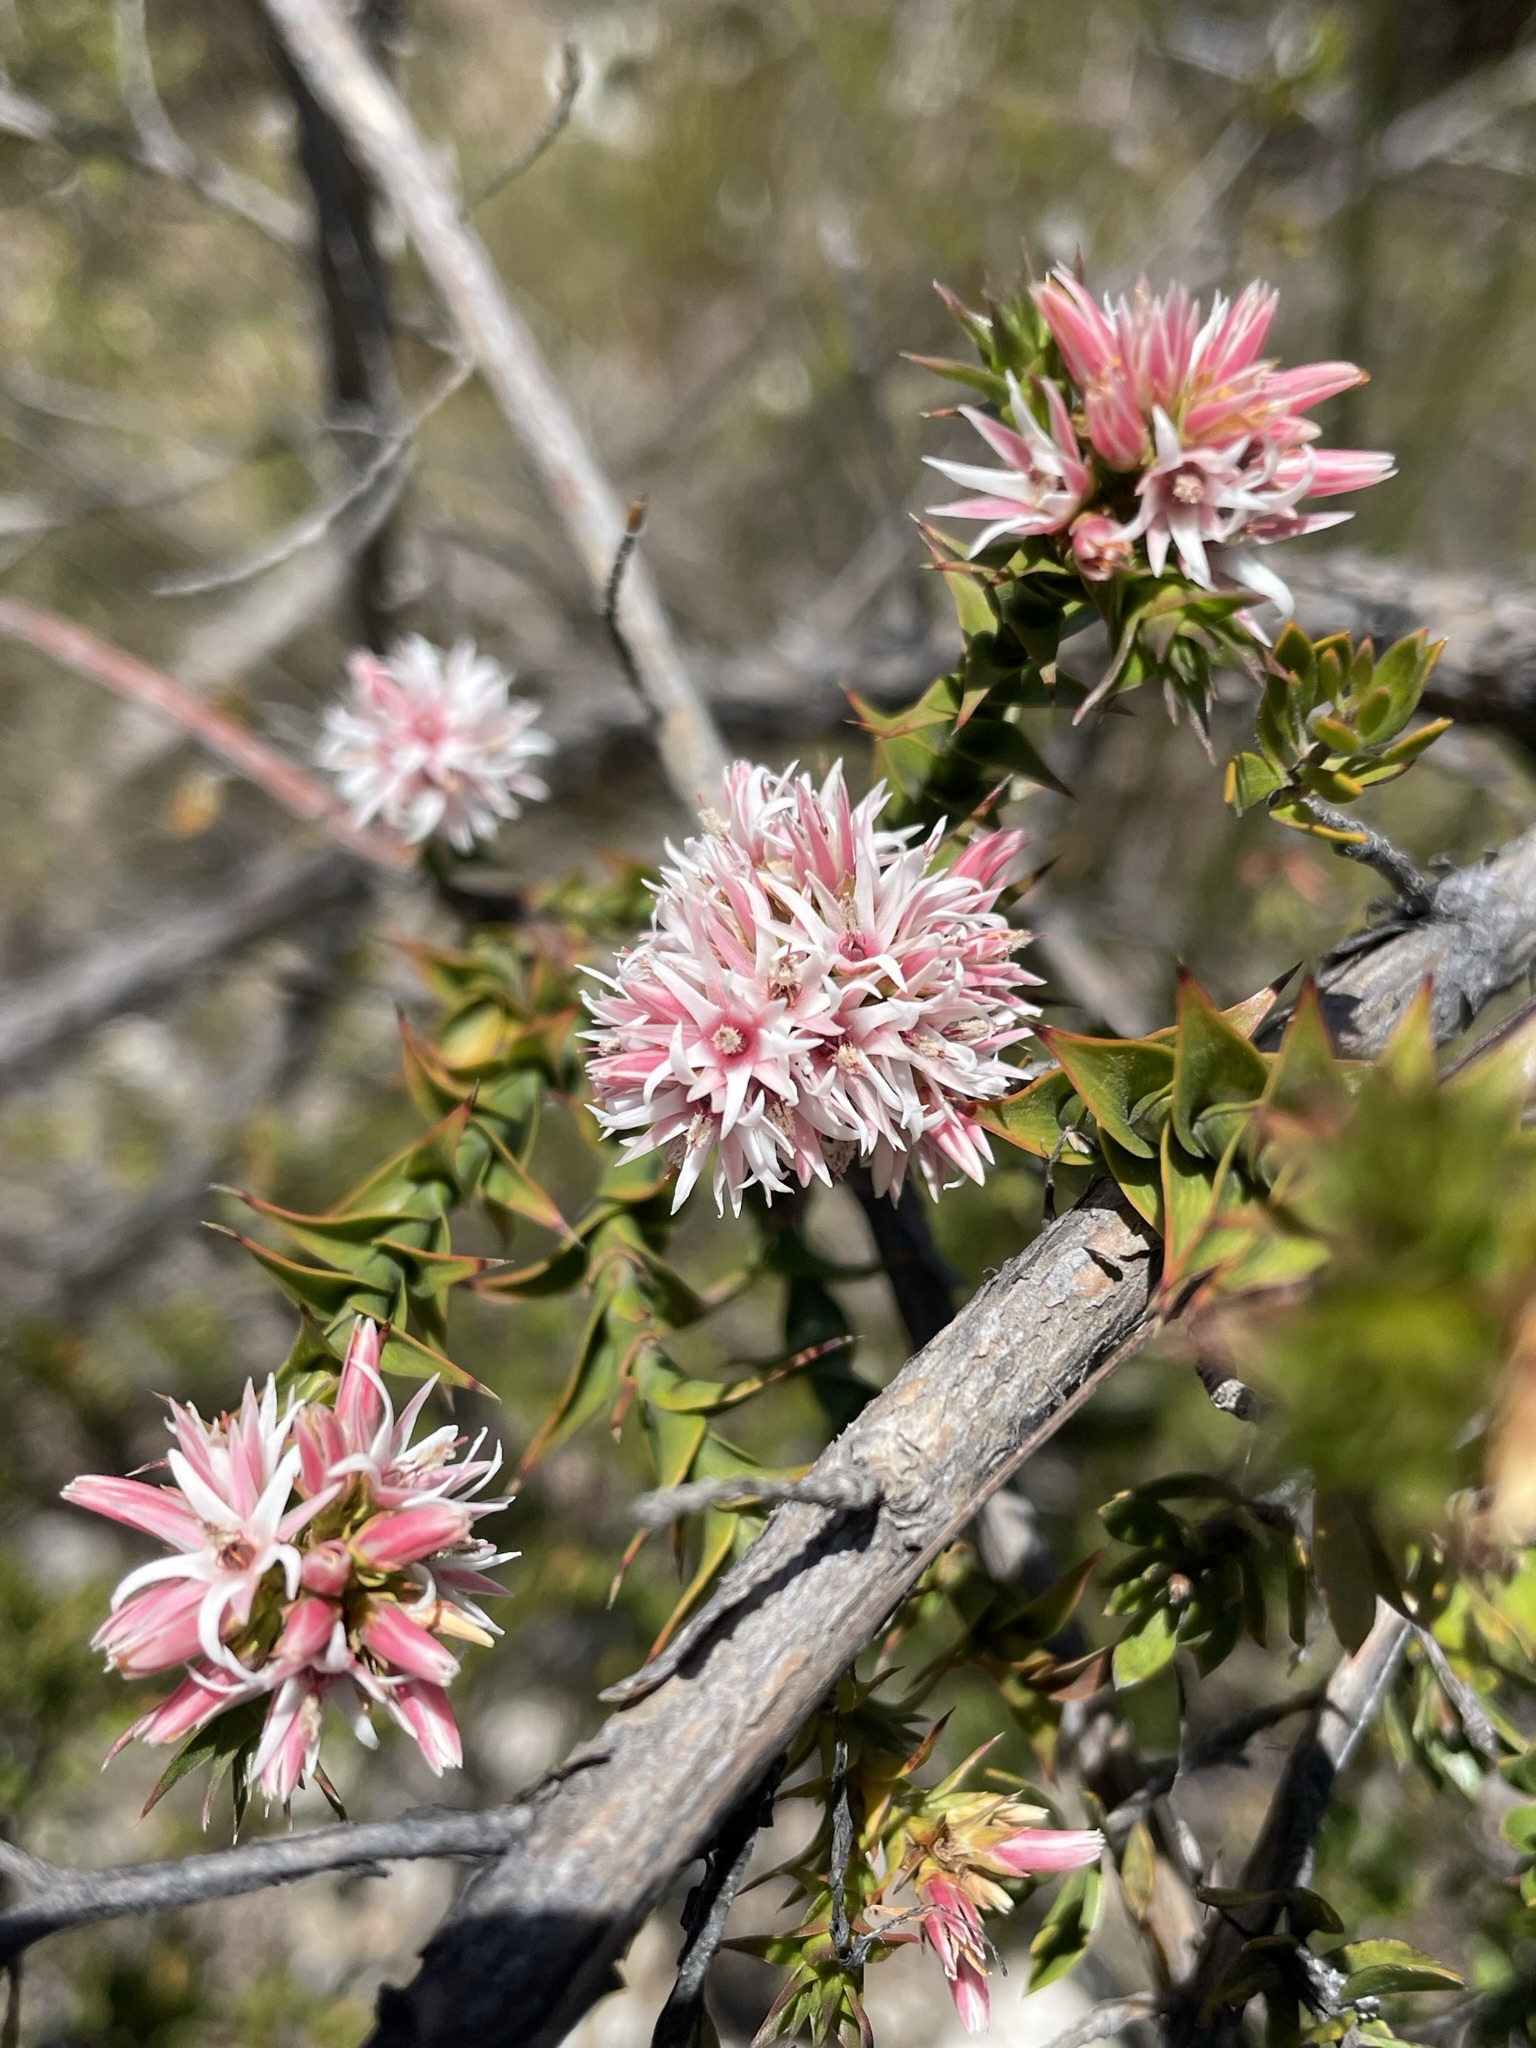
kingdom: Plantae
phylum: Tracheophyta
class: Magnoliopsida
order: Ericales
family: Ericaceae
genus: Sprengelia
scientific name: Sprengelia incarnata
